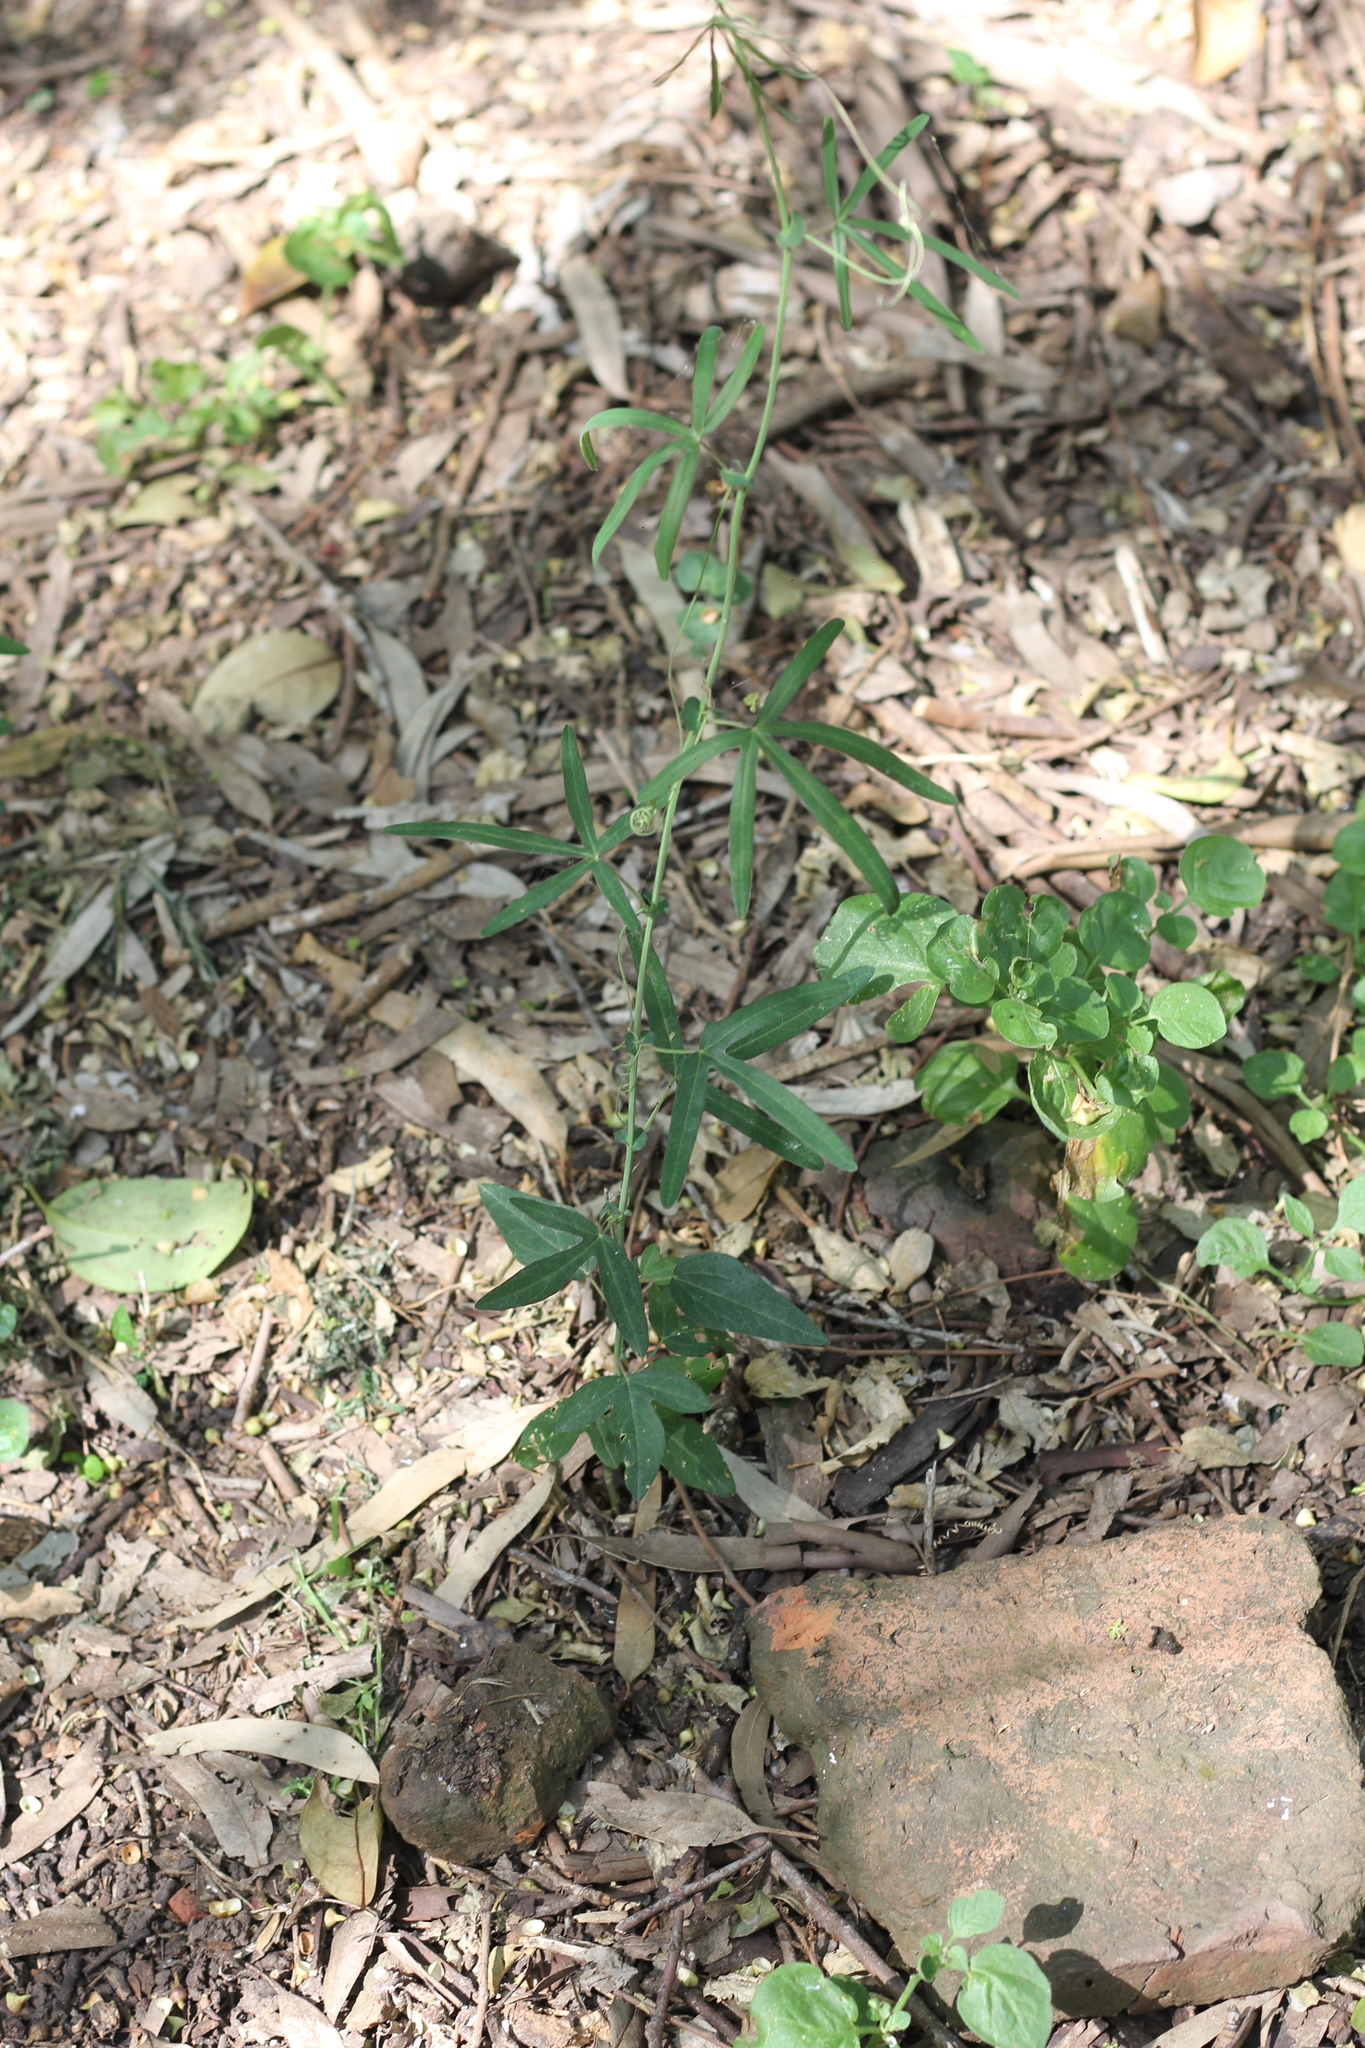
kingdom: Plantae
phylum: Tracheophyta
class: Magnoliopsida
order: Malpighiales
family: Passifloraceae
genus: Passiflora
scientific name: Passiflora caerulea
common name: Blue passionflower
